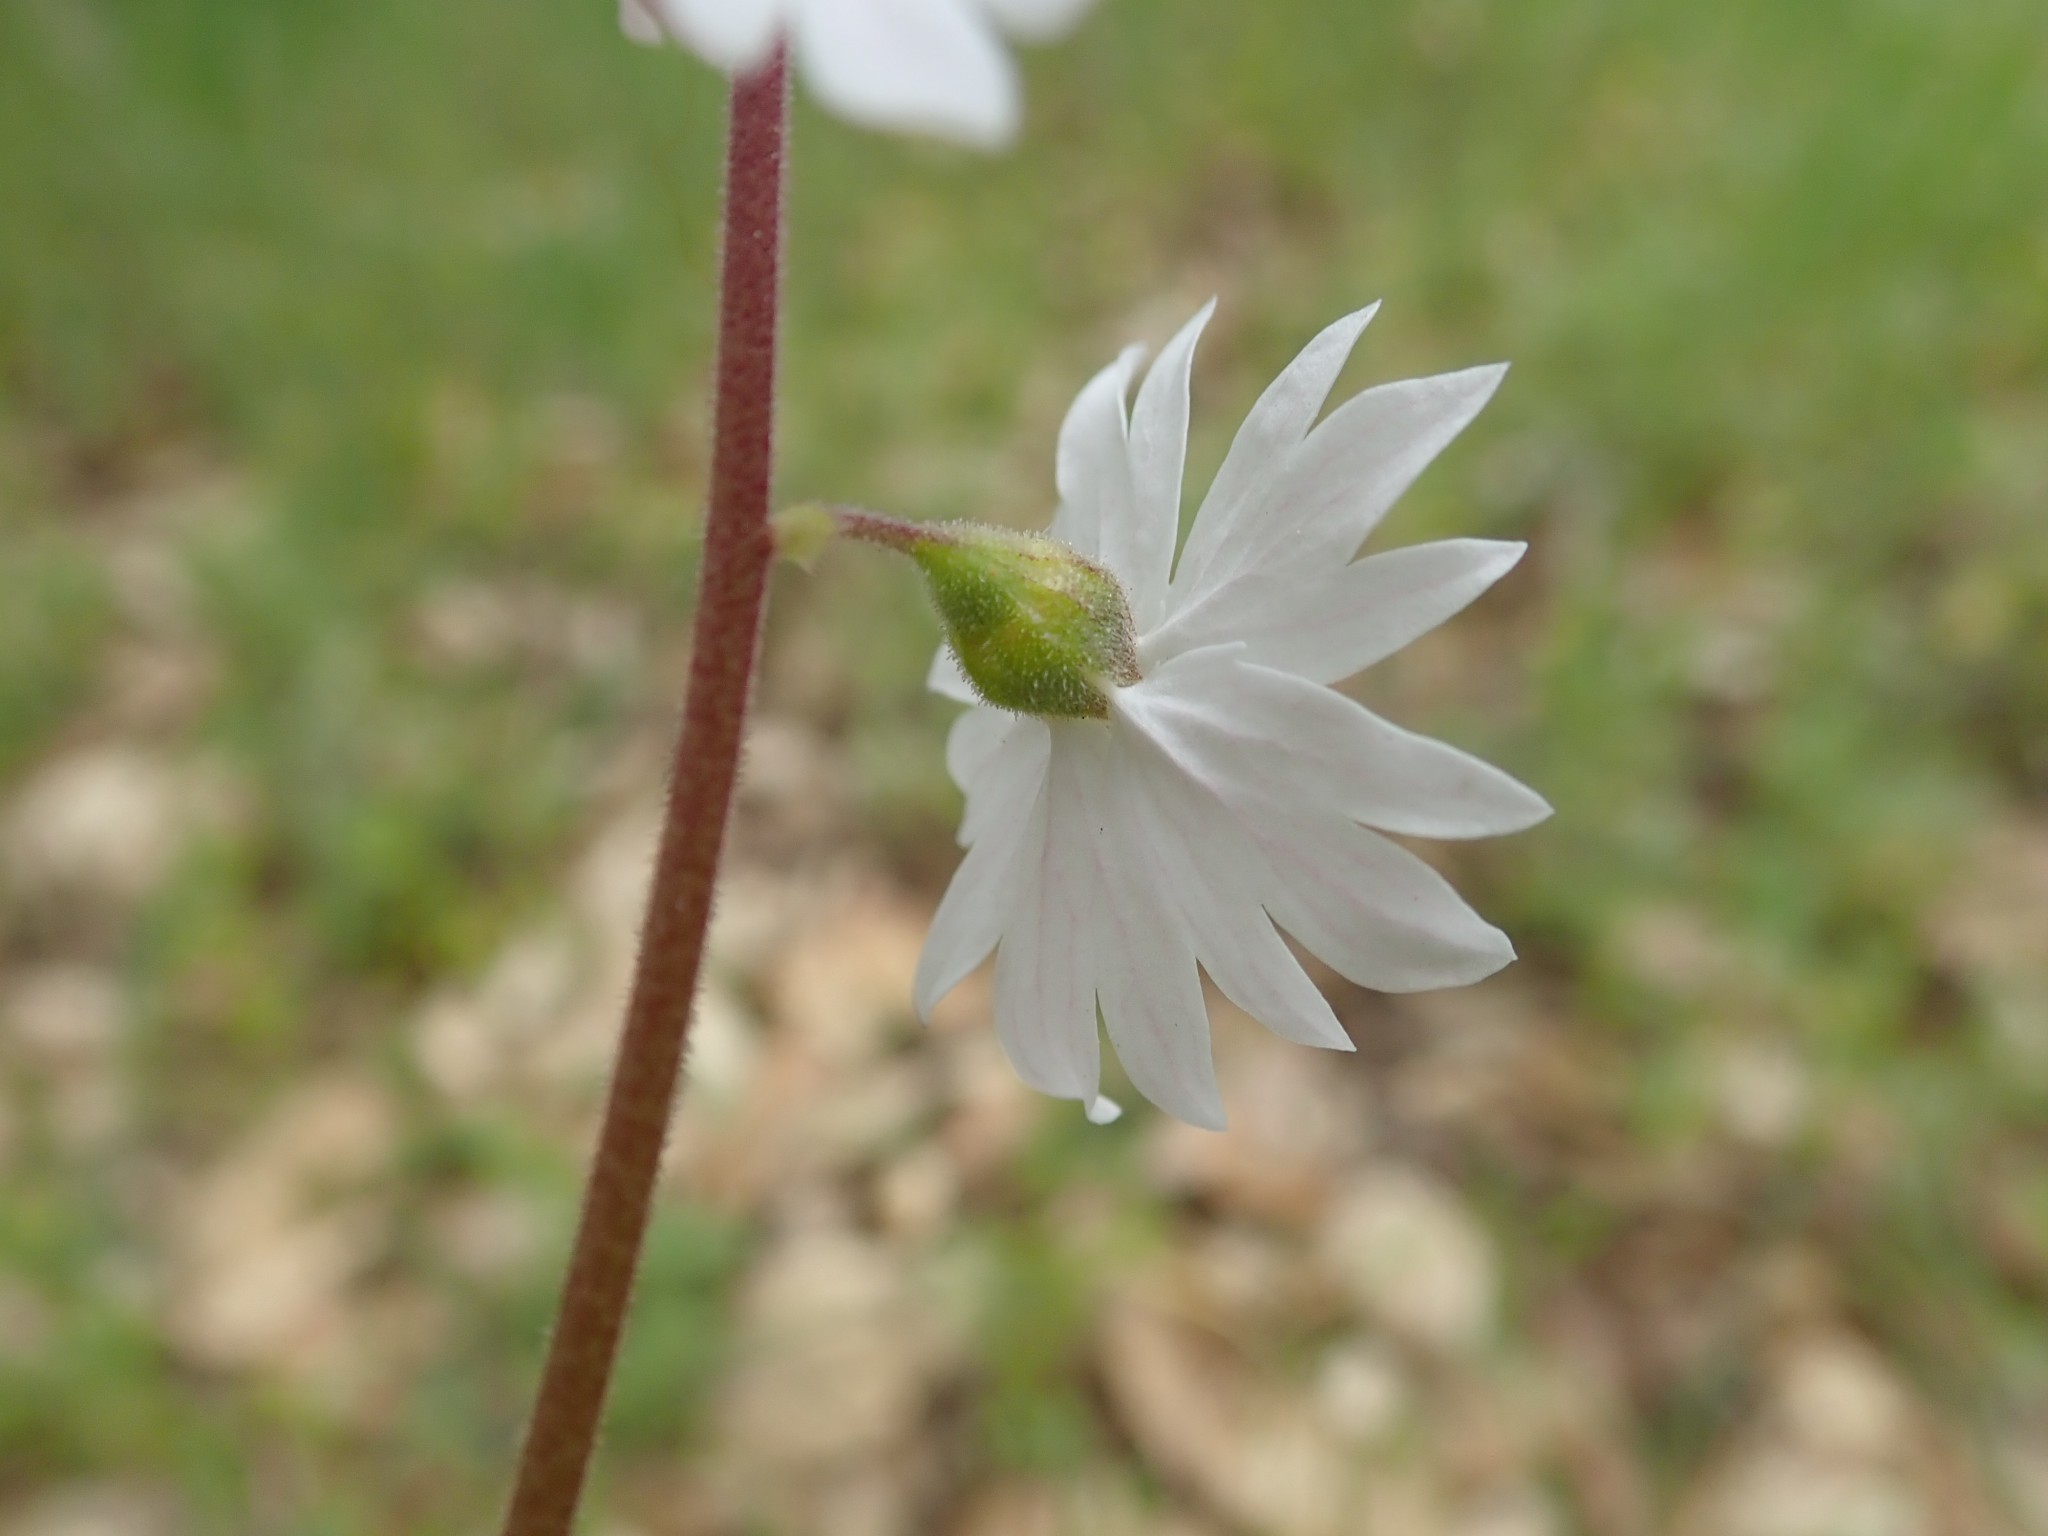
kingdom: Plantae
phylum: Tracheophyta
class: Magnoliopsida
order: Saxifragales
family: Saxifragaceae
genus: Lithophragma
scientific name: Lithophragma affine
